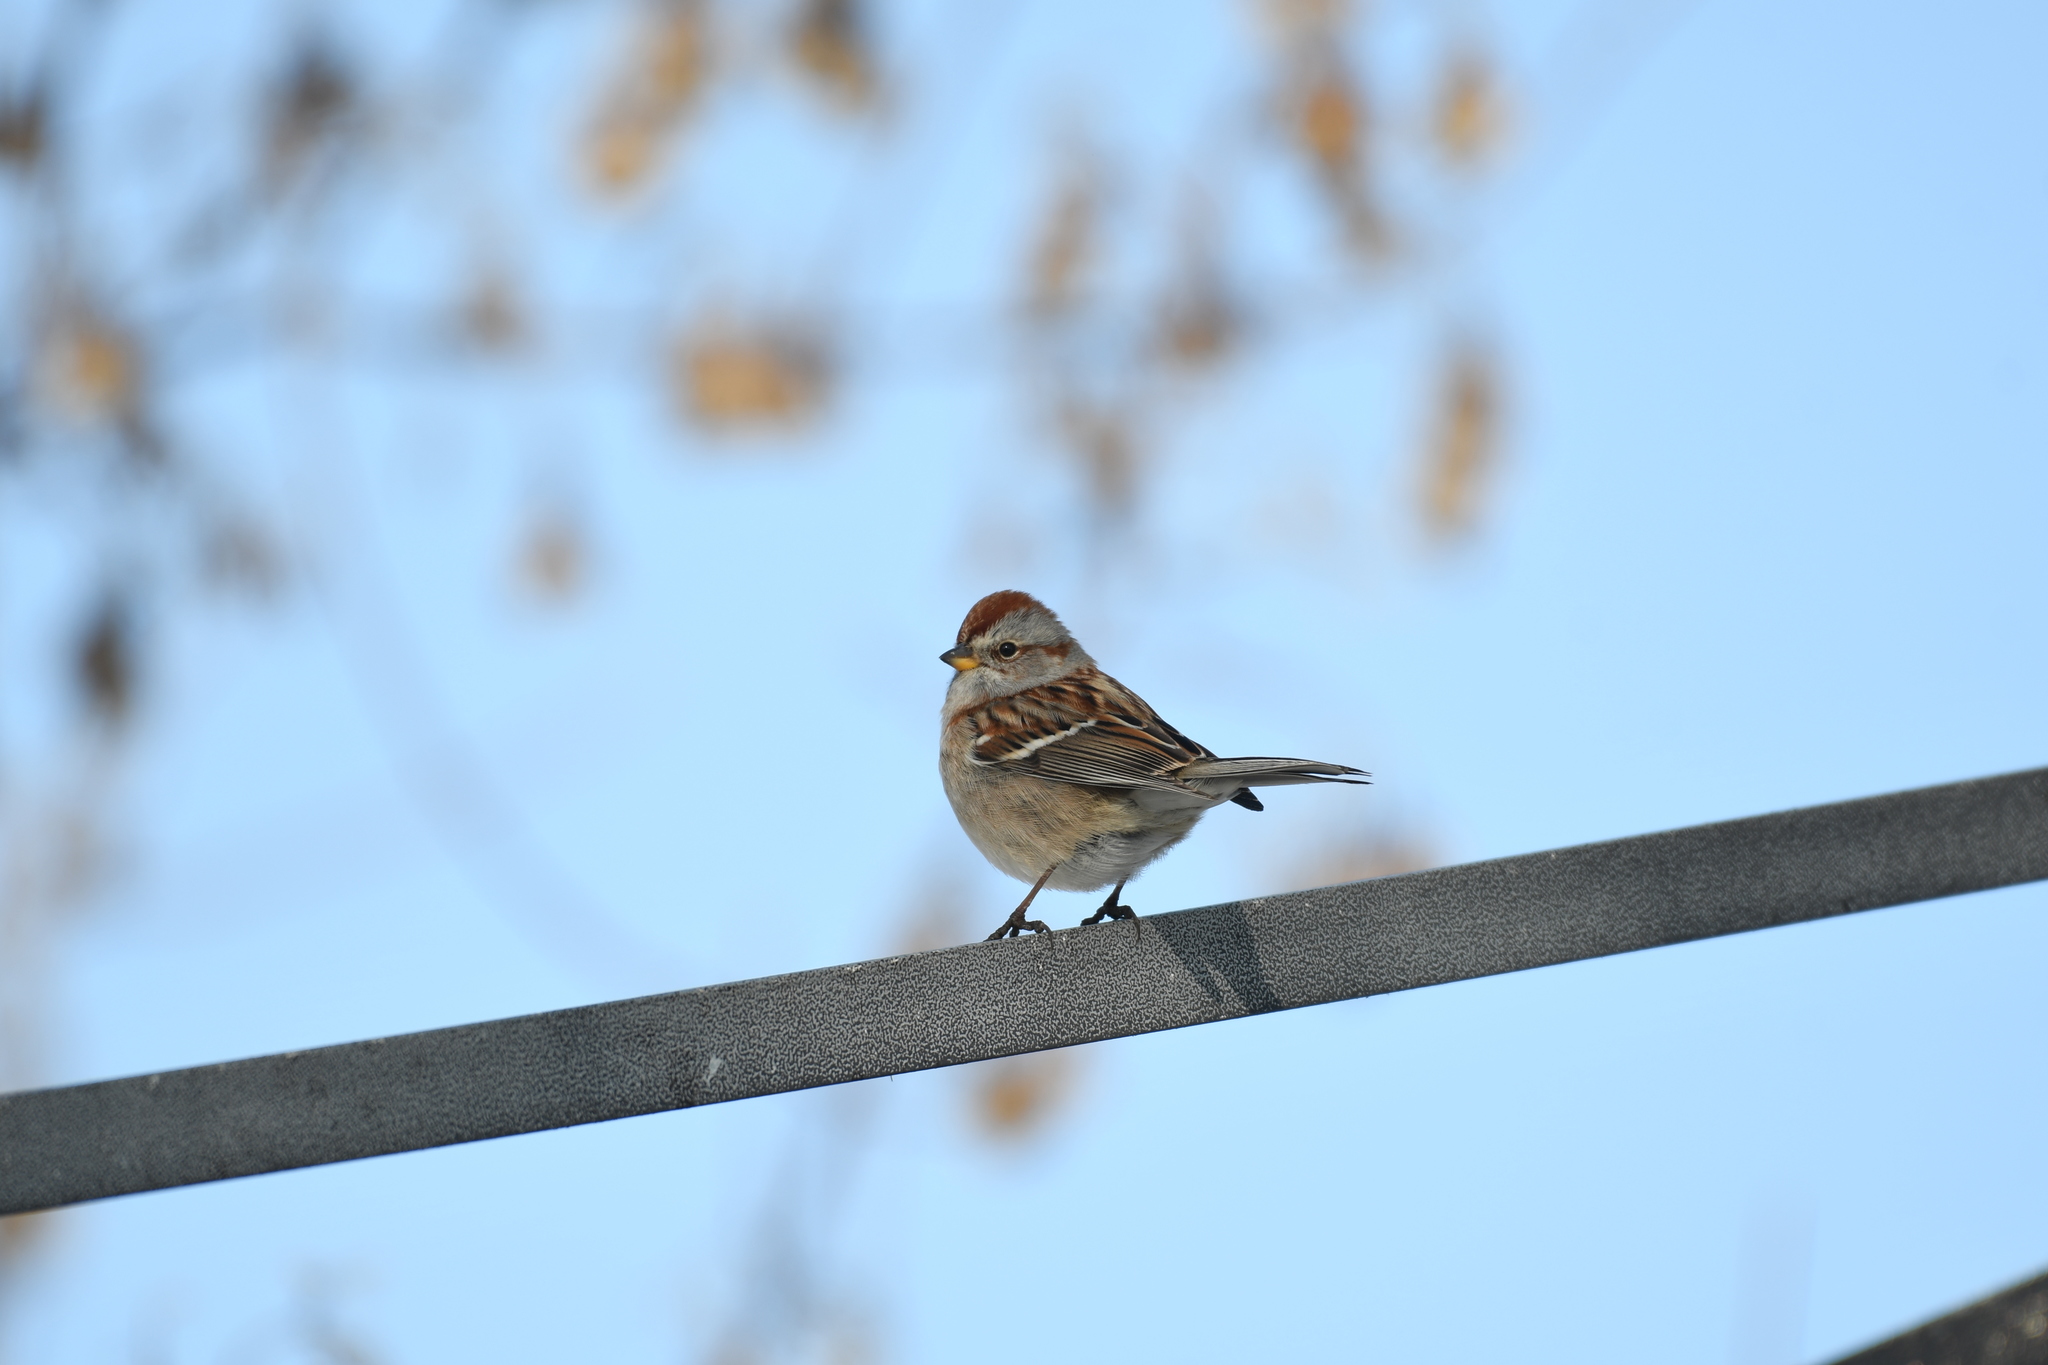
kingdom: Animalia
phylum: Chordata
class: Aves
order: Passeriformes
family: Passerellidae
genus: Spizelloides
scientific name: Spizelloides arborea
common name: American tree sparrow
